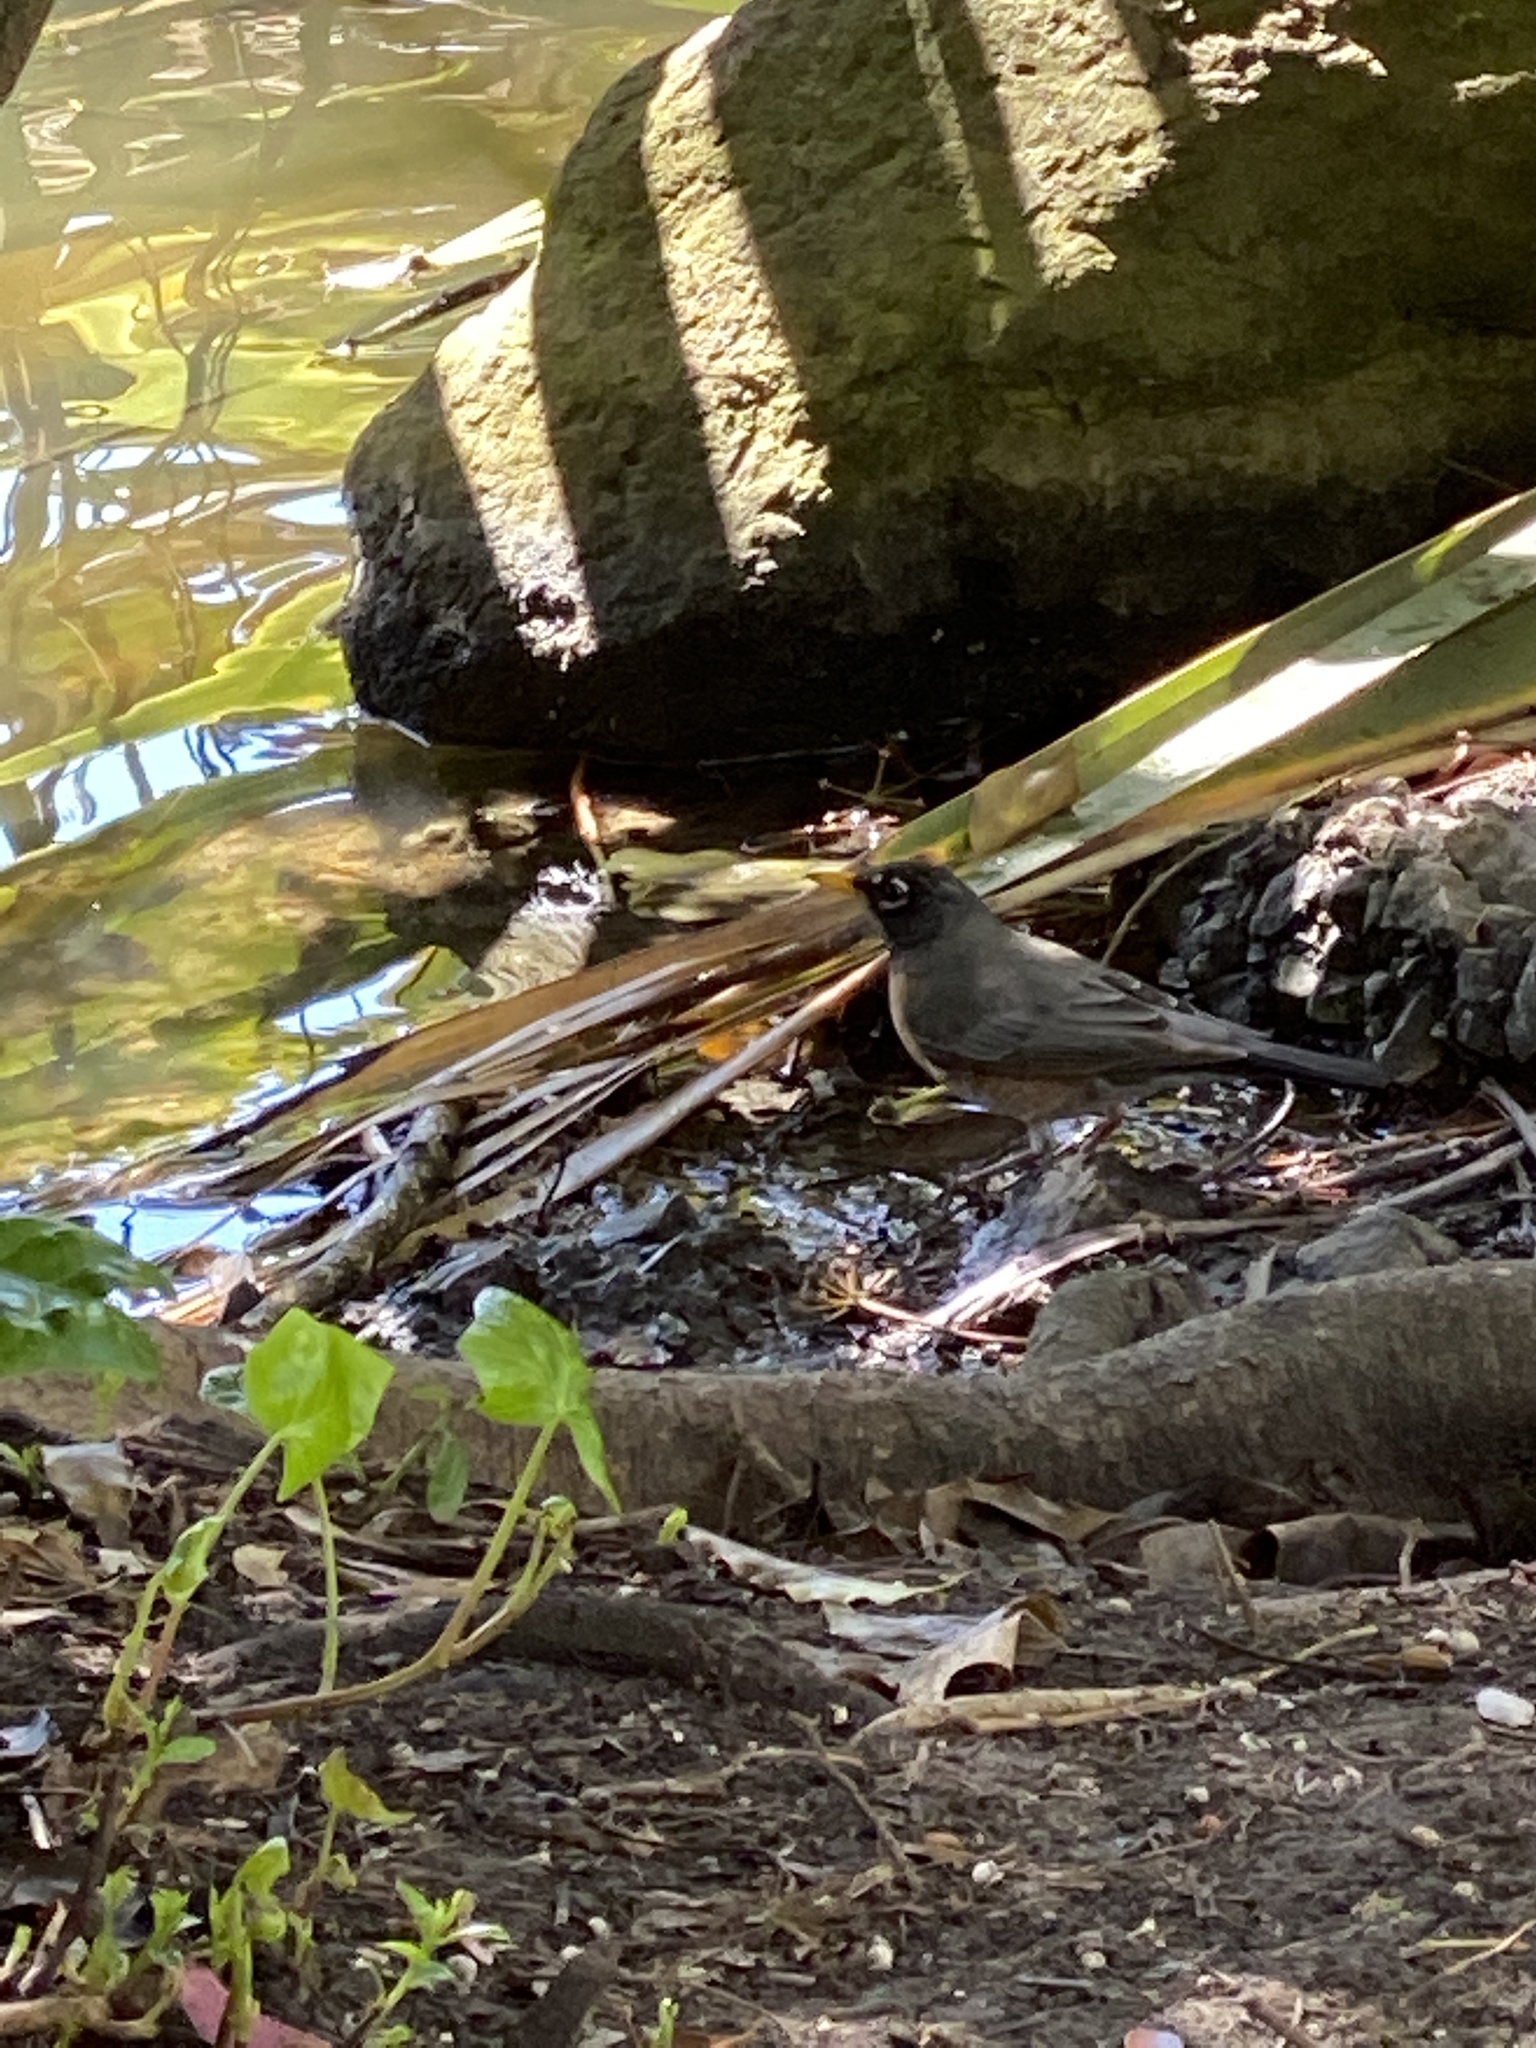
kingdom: Animalia
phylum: Chordata
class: Aves
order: Passeriformes
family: Turdidae
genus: Turdus
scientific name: Turdus migratorius
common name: American robin
